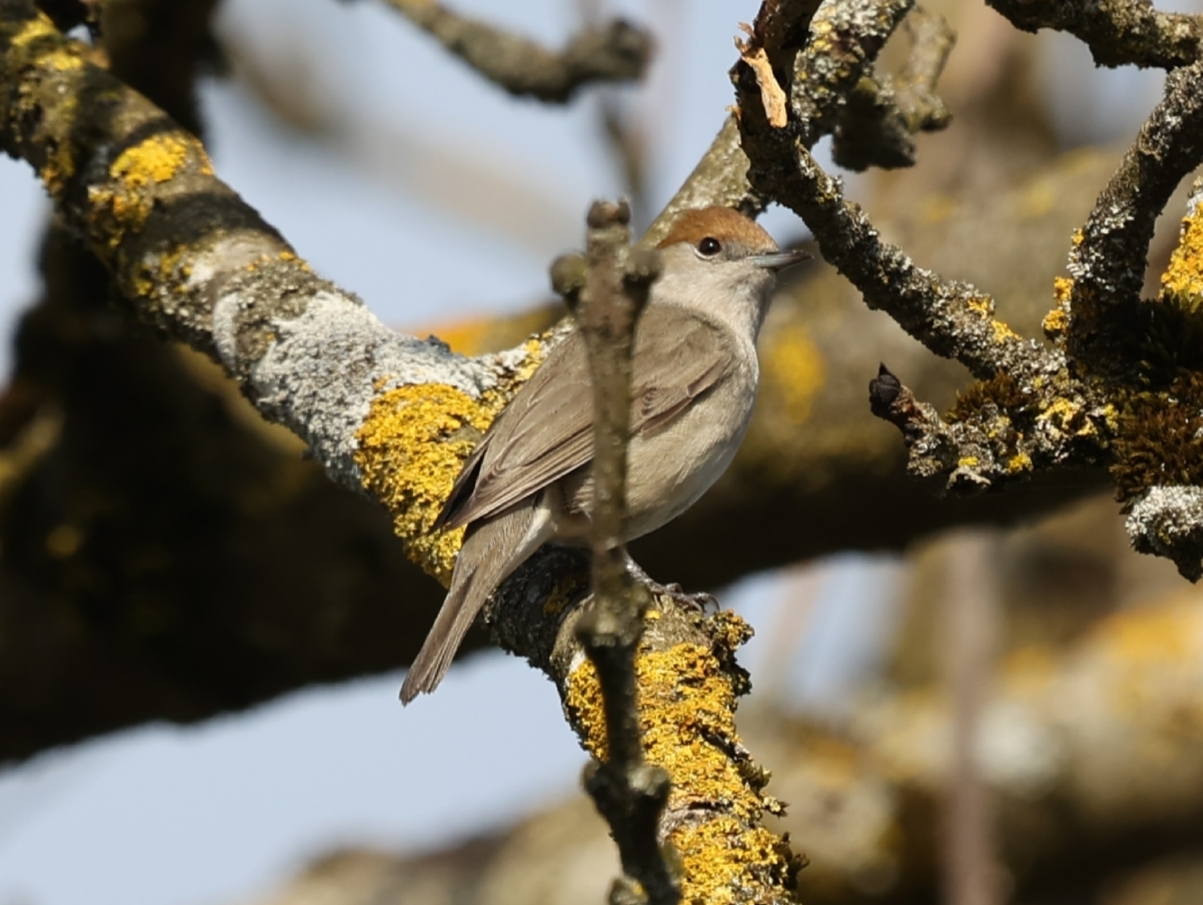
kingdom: Animalia
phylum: Chordata
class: Aves
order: Passeriformes
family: Sylviidae
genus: Sylvia
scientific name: Sylvia atricapilla
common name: Eurasian blackcap
